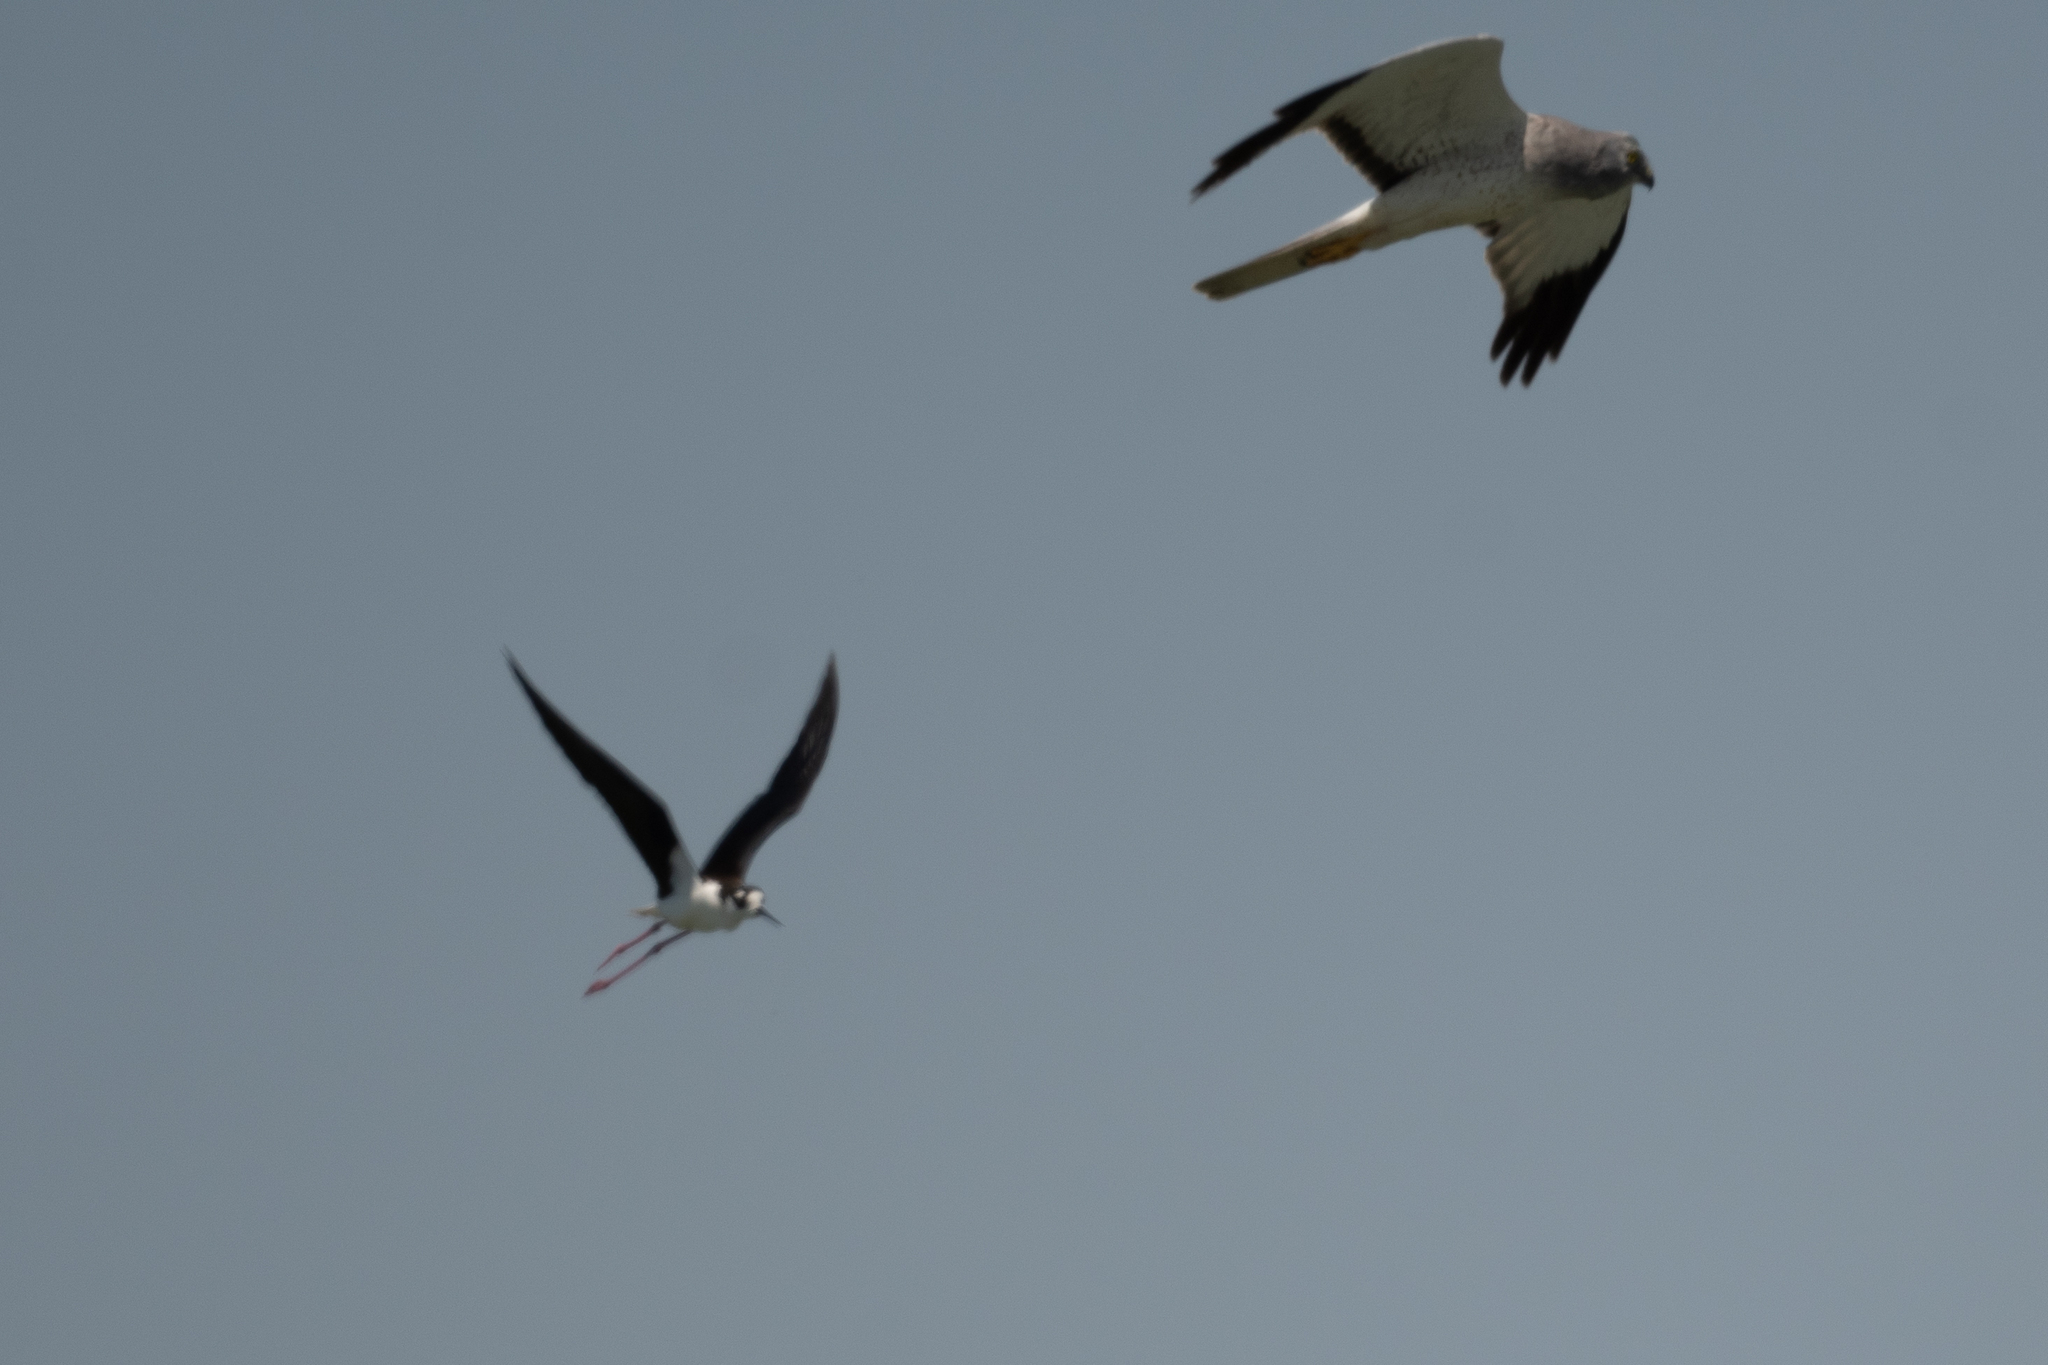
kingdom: Animalia
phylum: Chordata
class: Aves
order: Accipitriformes
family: Accipitridae
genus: Circus
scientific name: Circus cyaneus
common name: Hen harrier
